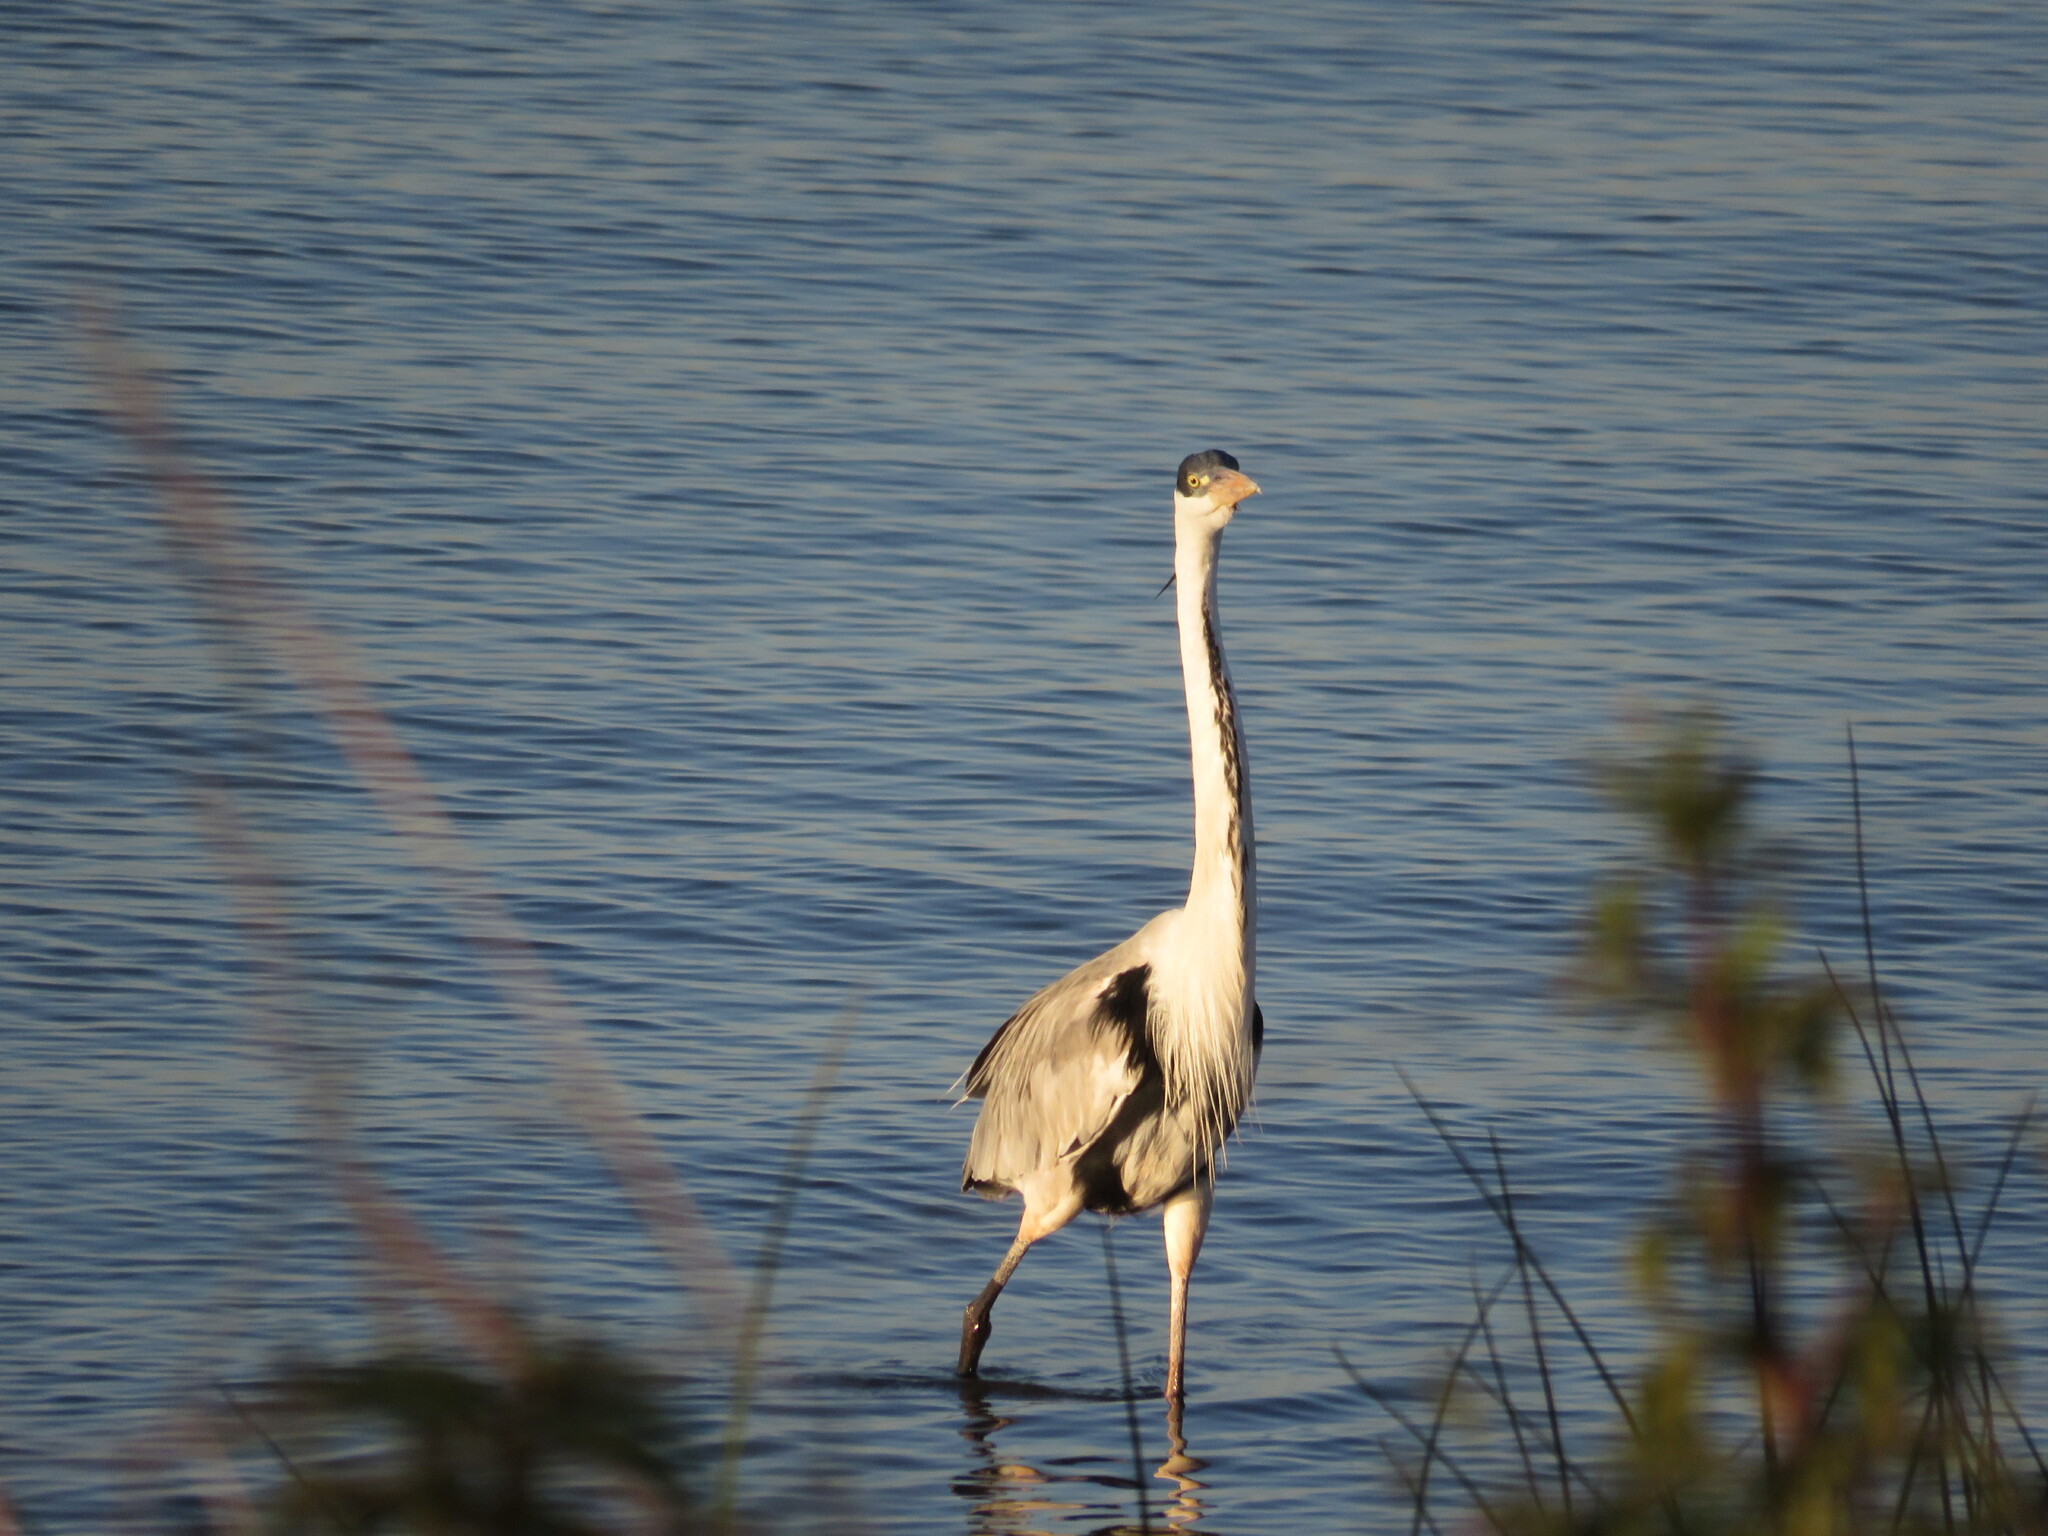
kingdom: Animalia
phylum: Chordata
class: Aves
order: Pelecaniformes
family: Ardeidae
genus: Ardea
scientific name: Ardea cocoi
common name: Cocoi heron
